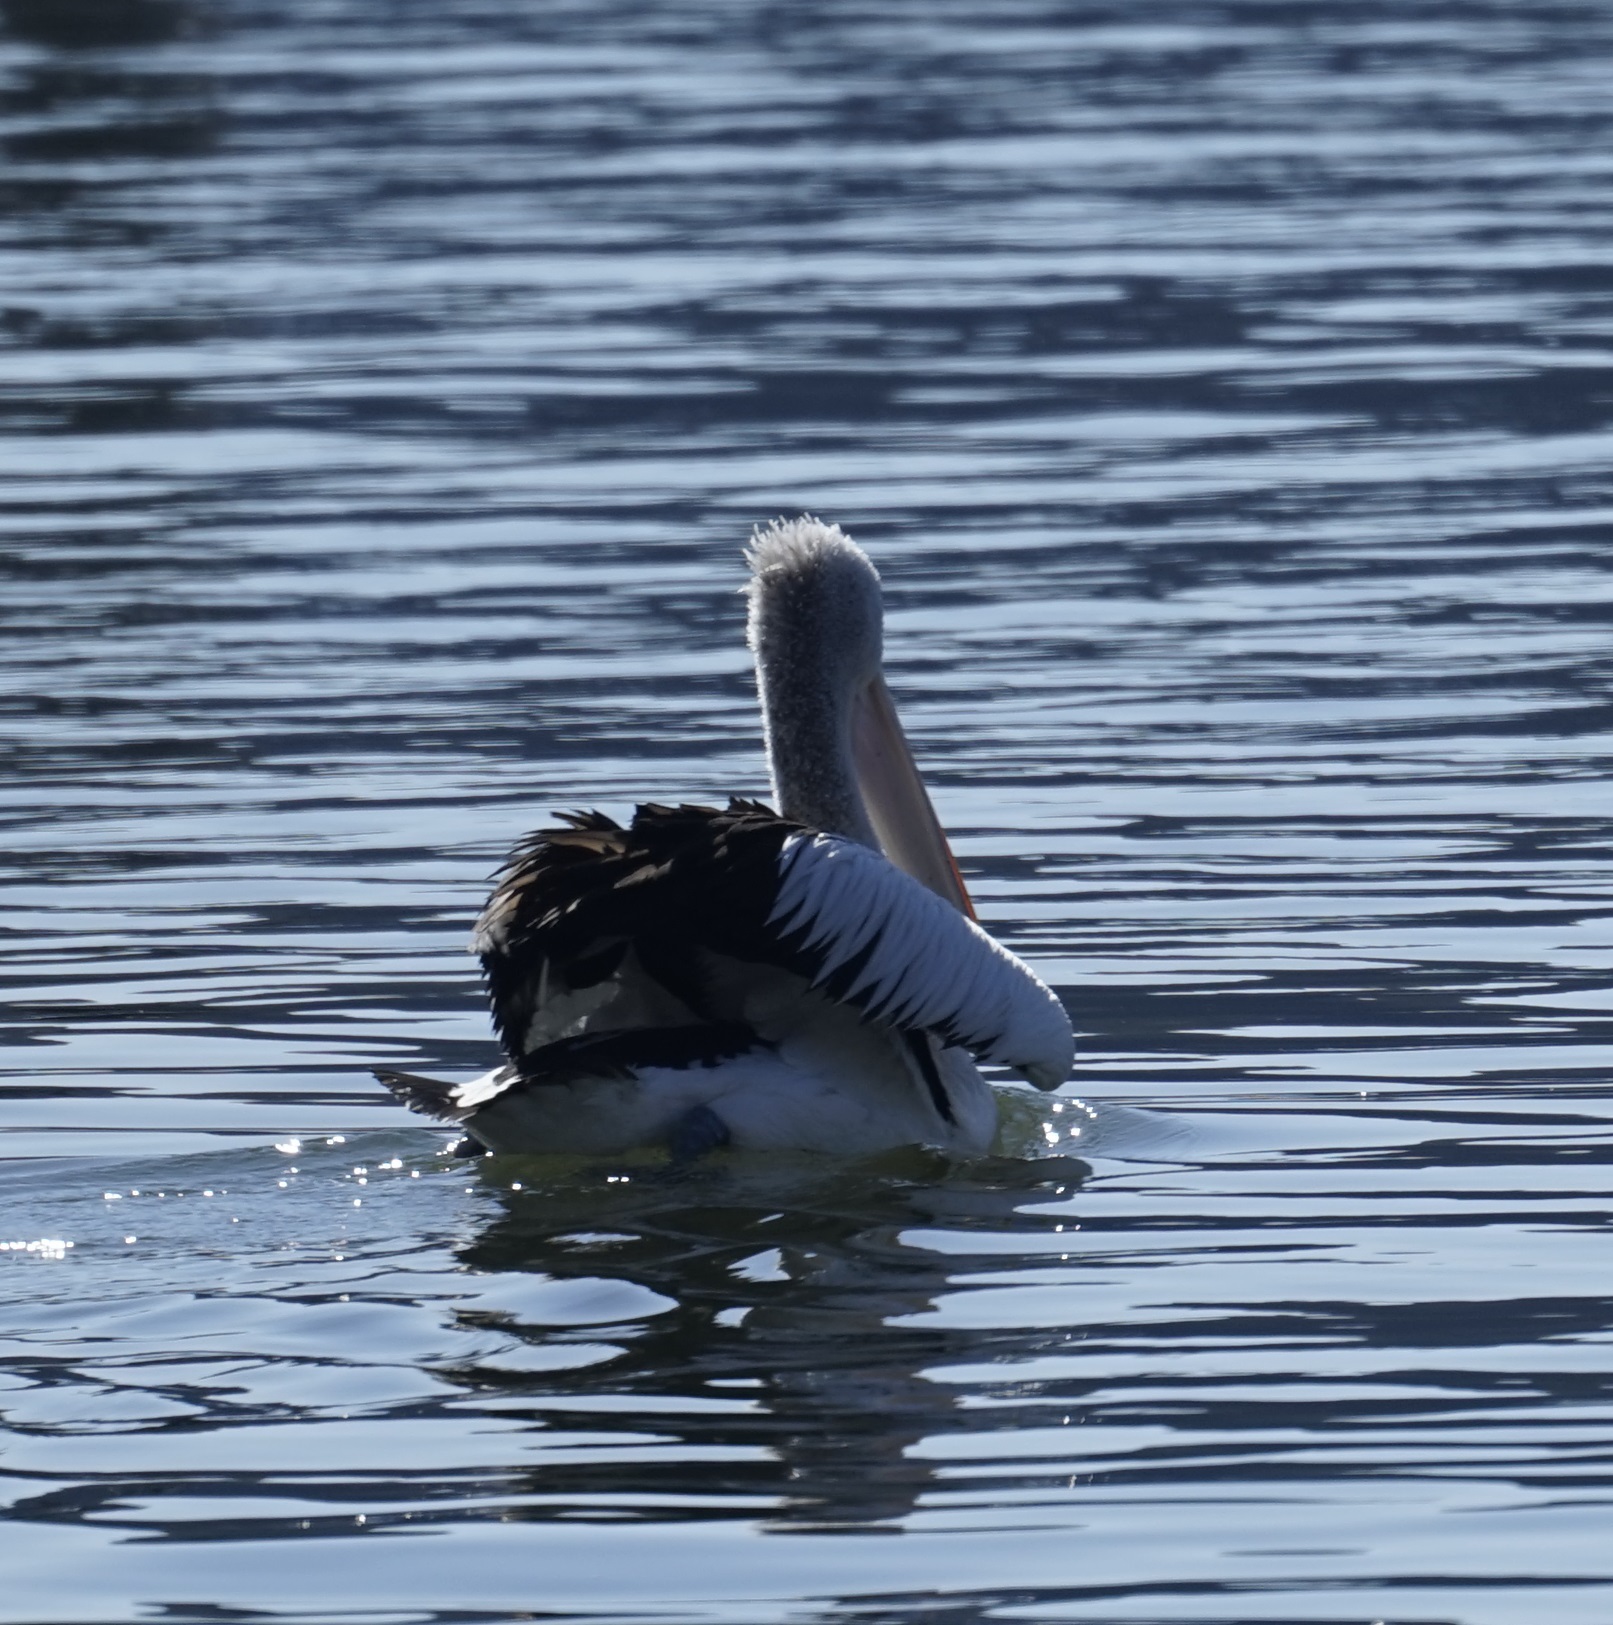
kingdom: Animalia
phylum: Chordata
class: Aves
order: Pelecaniformes
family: Pelecanidae
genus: Pelecanus
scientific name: Pelecanus conspicillatus
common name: Australian pelican
